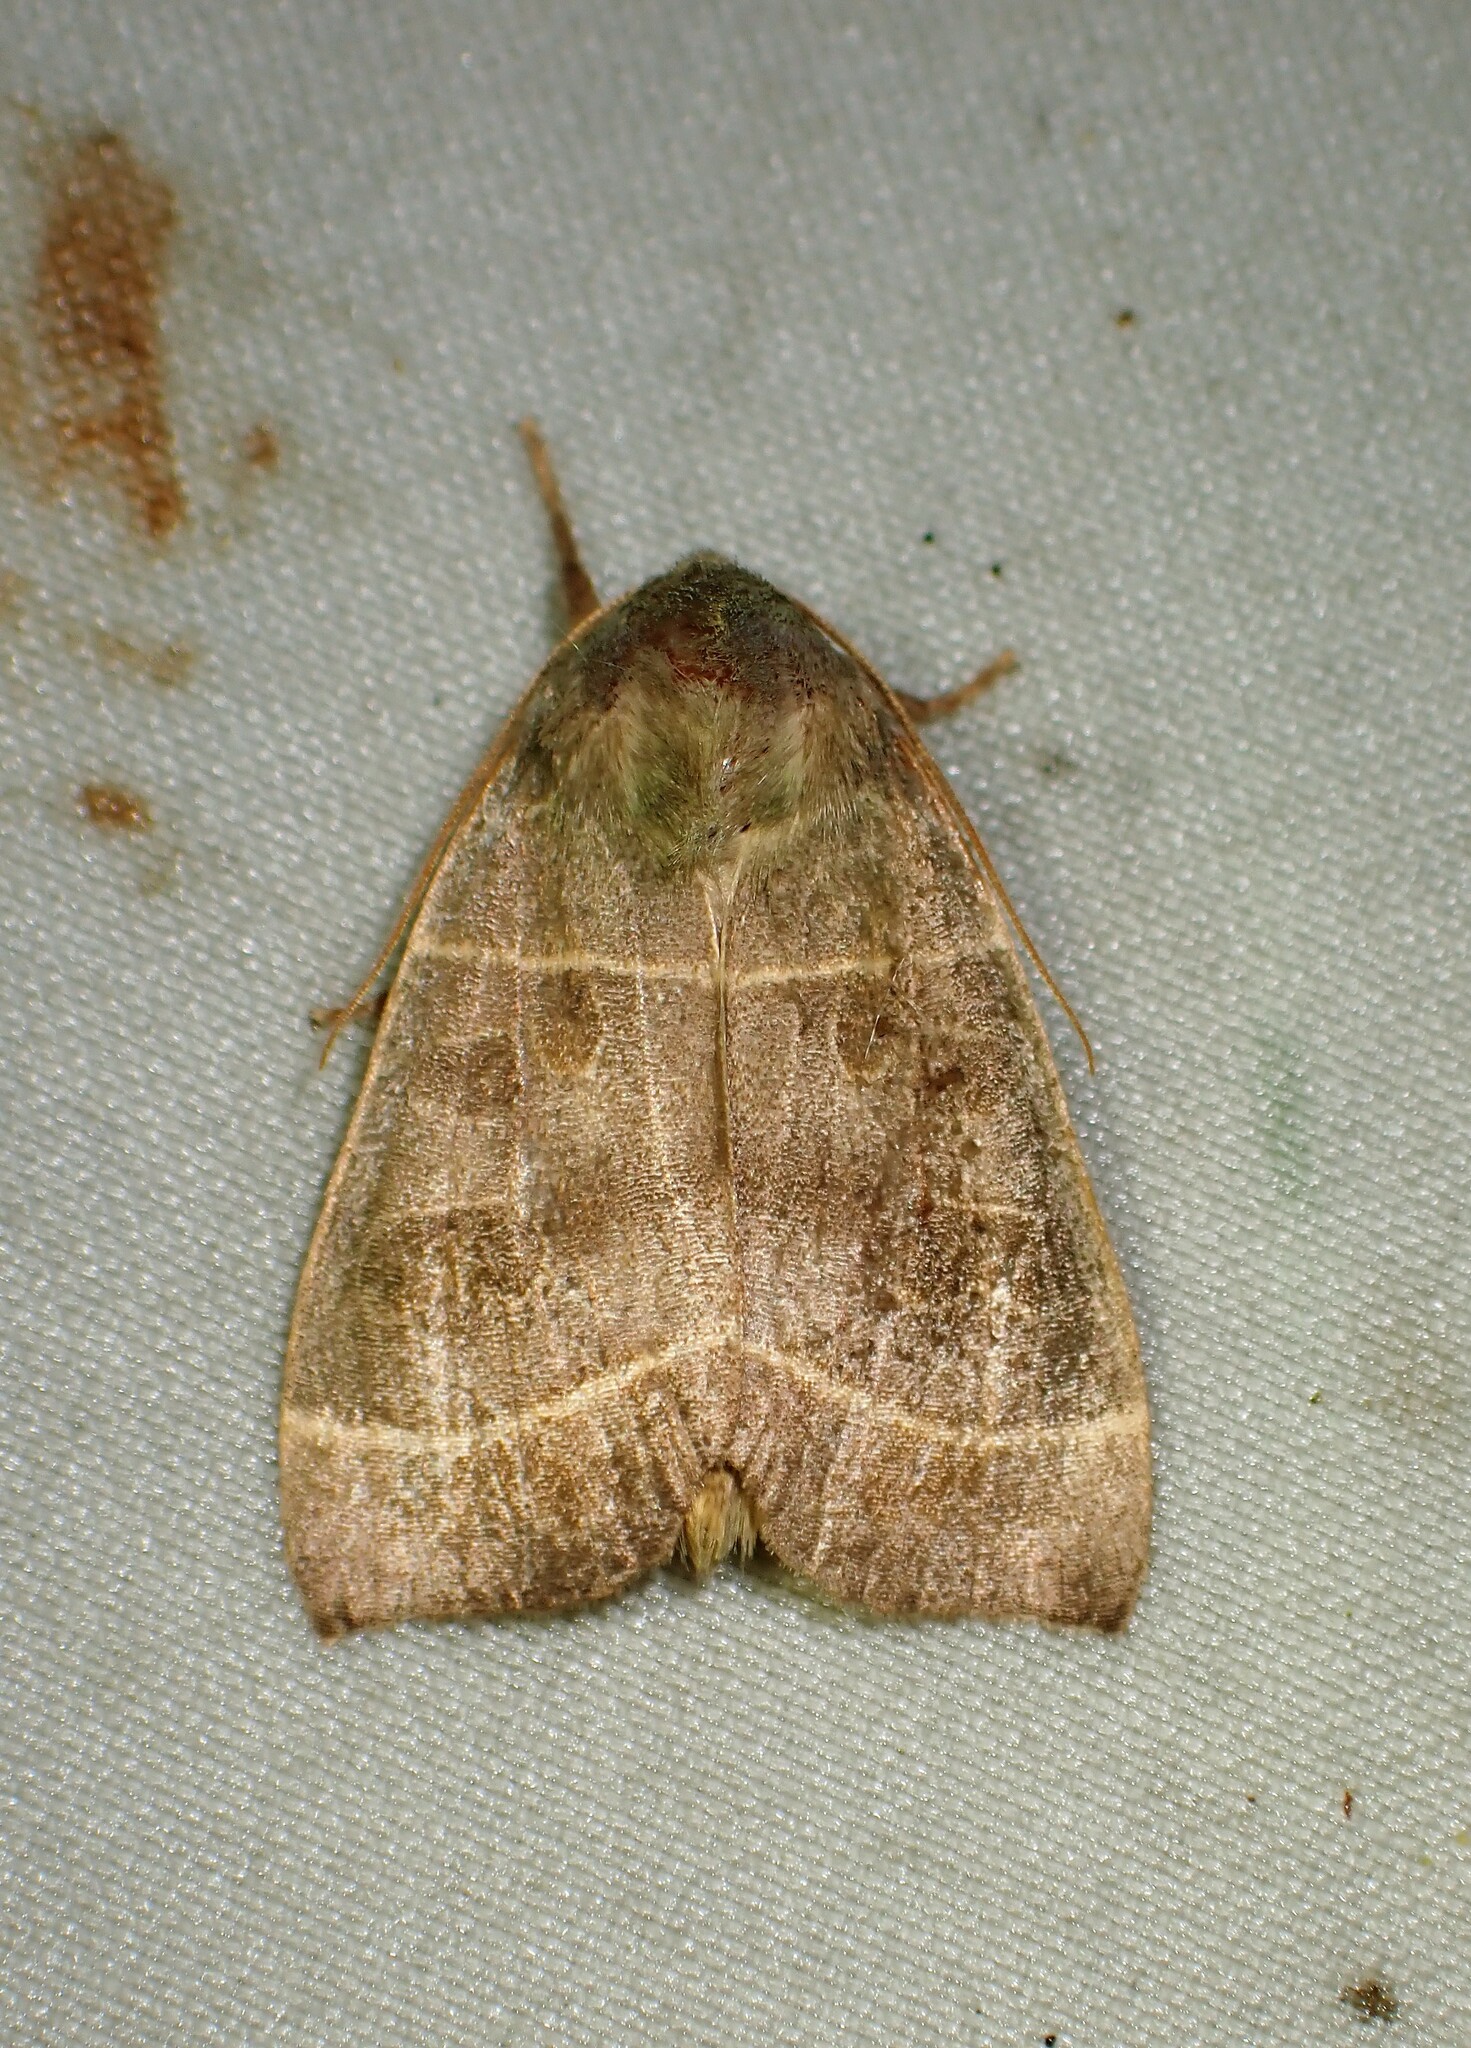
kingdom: Animalia
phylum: Arthropoda
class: Insecta
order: Lepidoptera
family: Noctuidae
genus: Ipimorpha
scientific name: Ipimorpha pleonectusa
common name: Even-lined sallow
